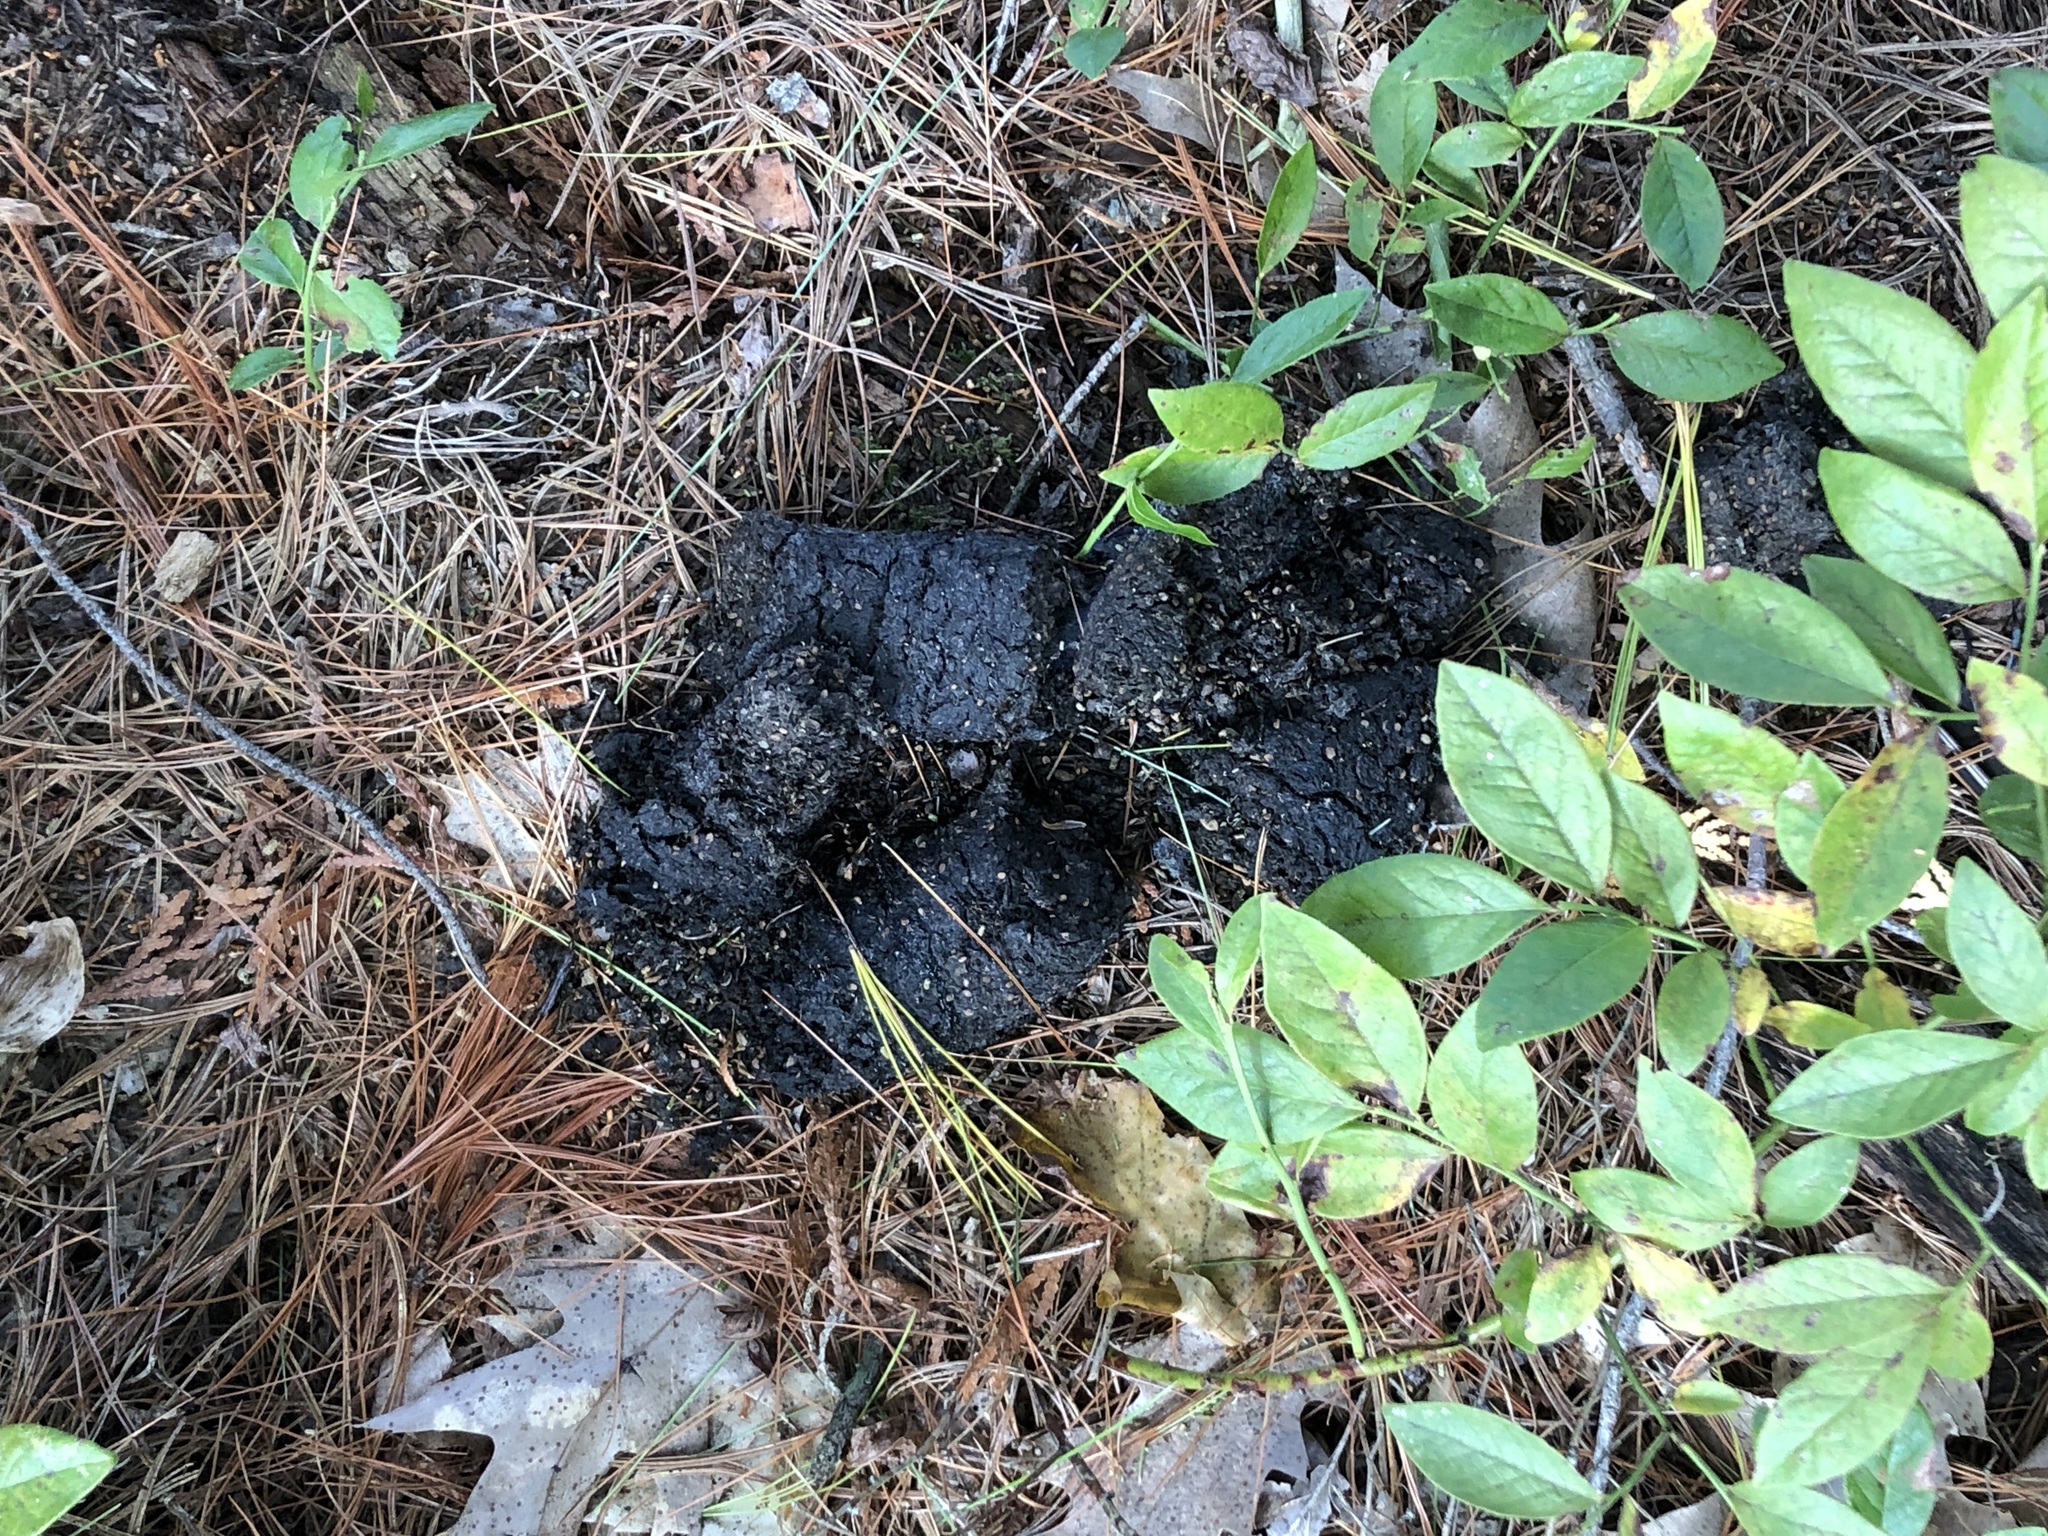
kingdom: Animalia
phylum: Chordata
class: Mammalia
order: Carnivora
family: Ursidae
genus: Ursus
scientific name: Ursus americanus
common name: American black bear
